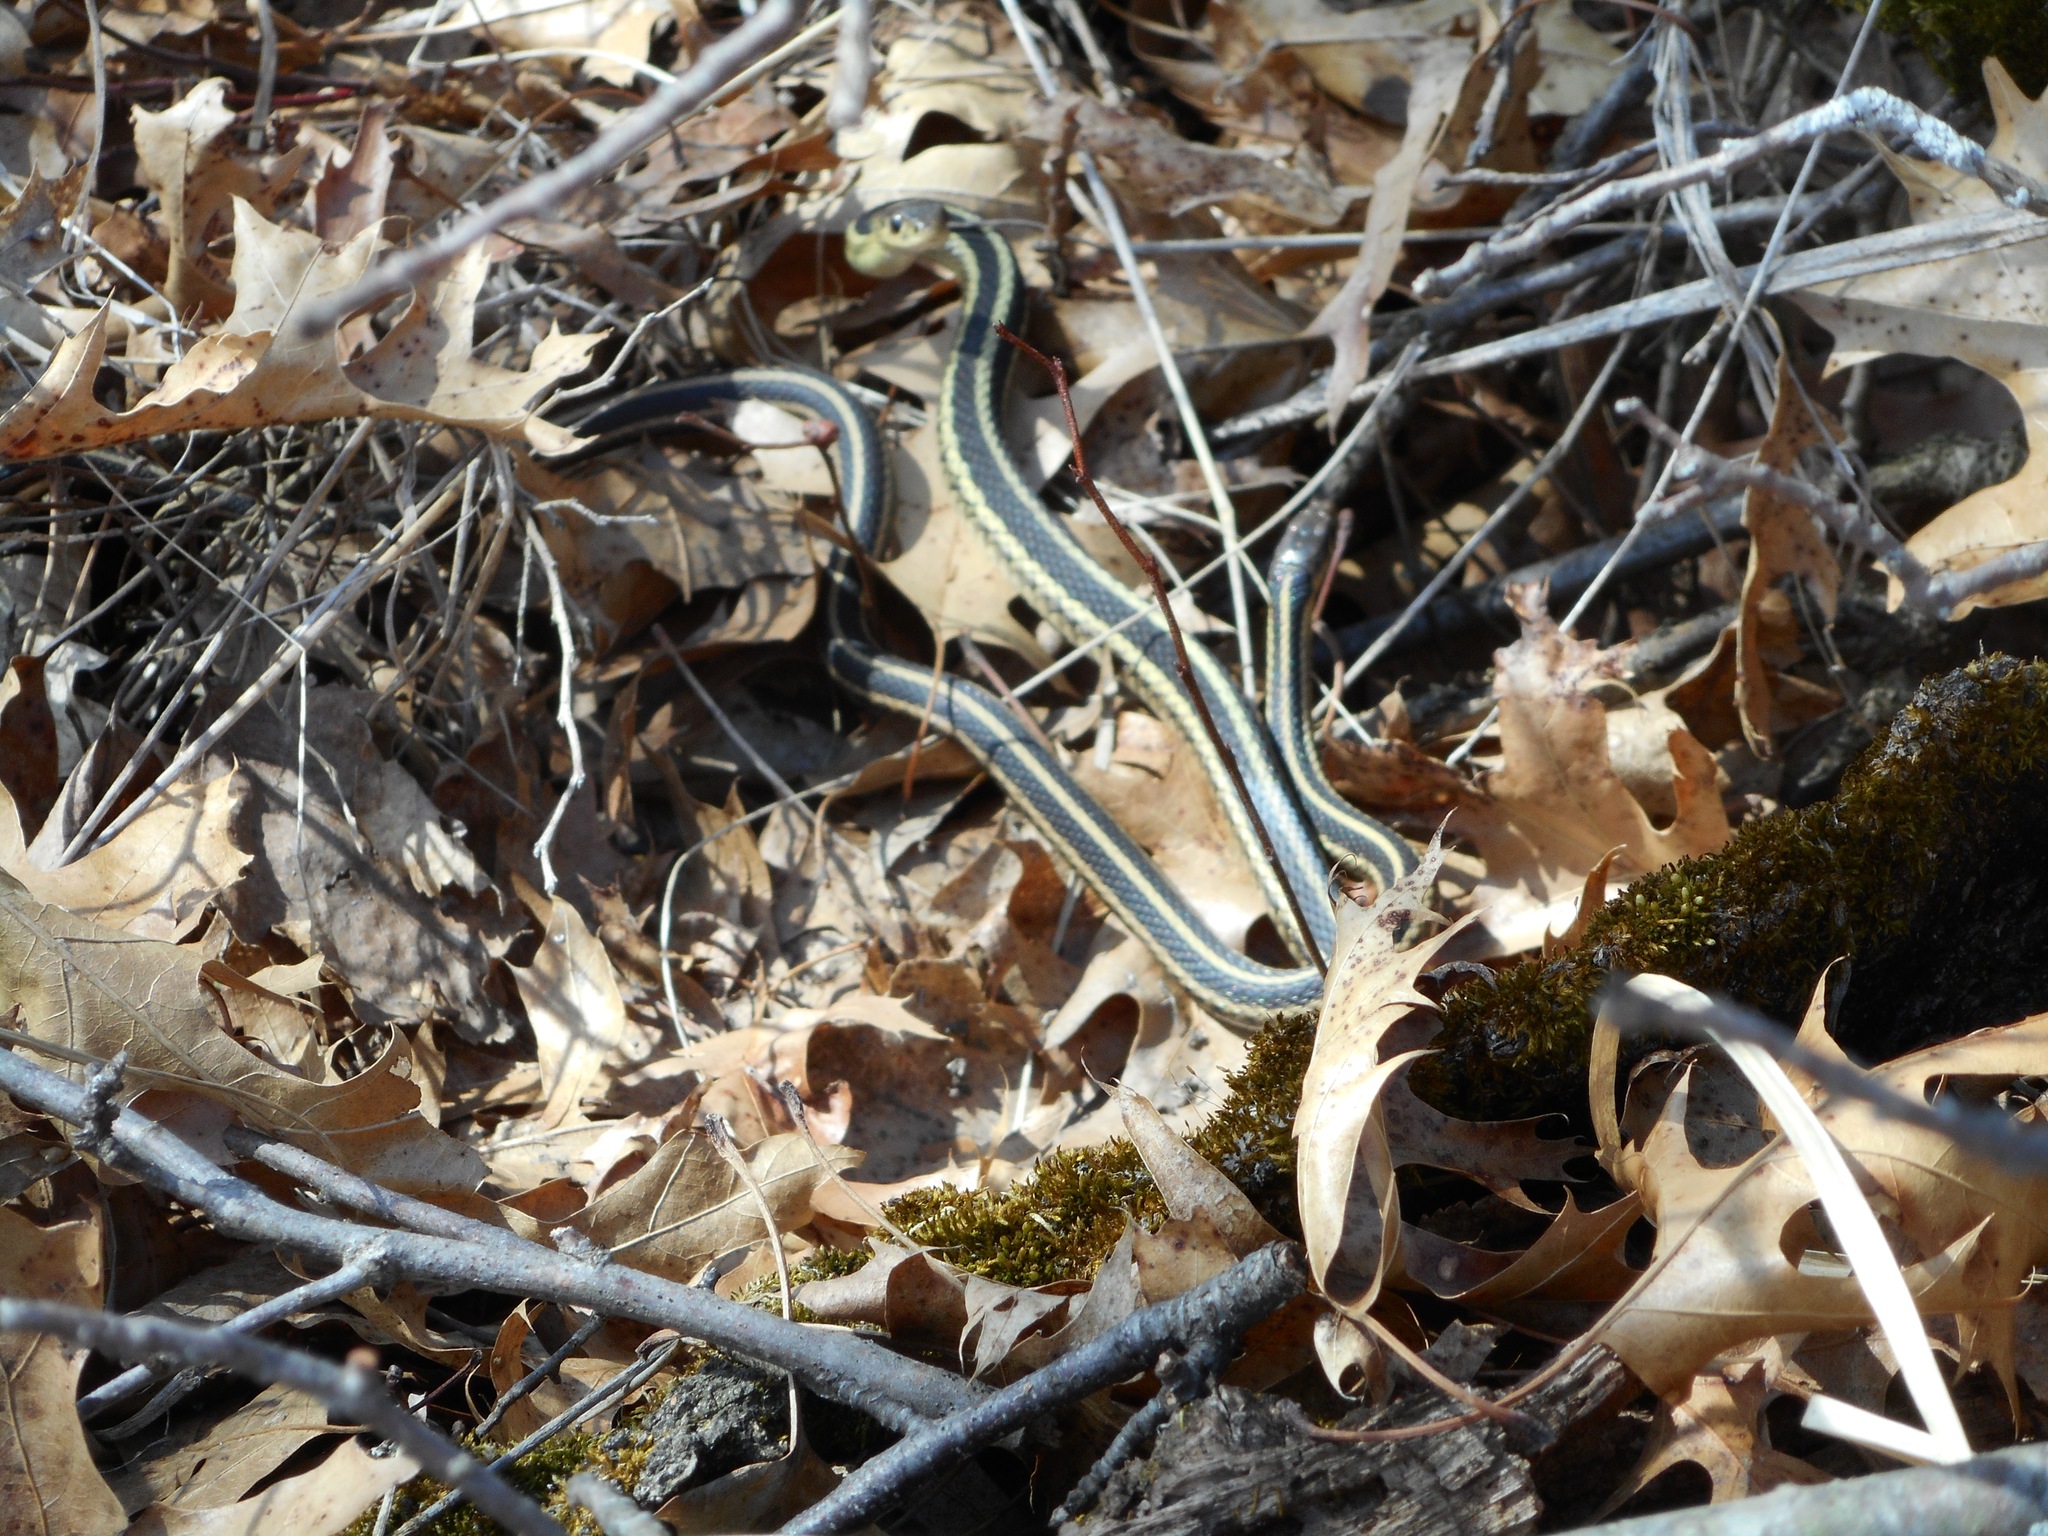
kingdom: Animalia
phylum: Chordata
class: Squamata
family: Colubridae
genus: Thamnophis
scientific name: Thamnophis sirtalis
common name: Common garter snake
